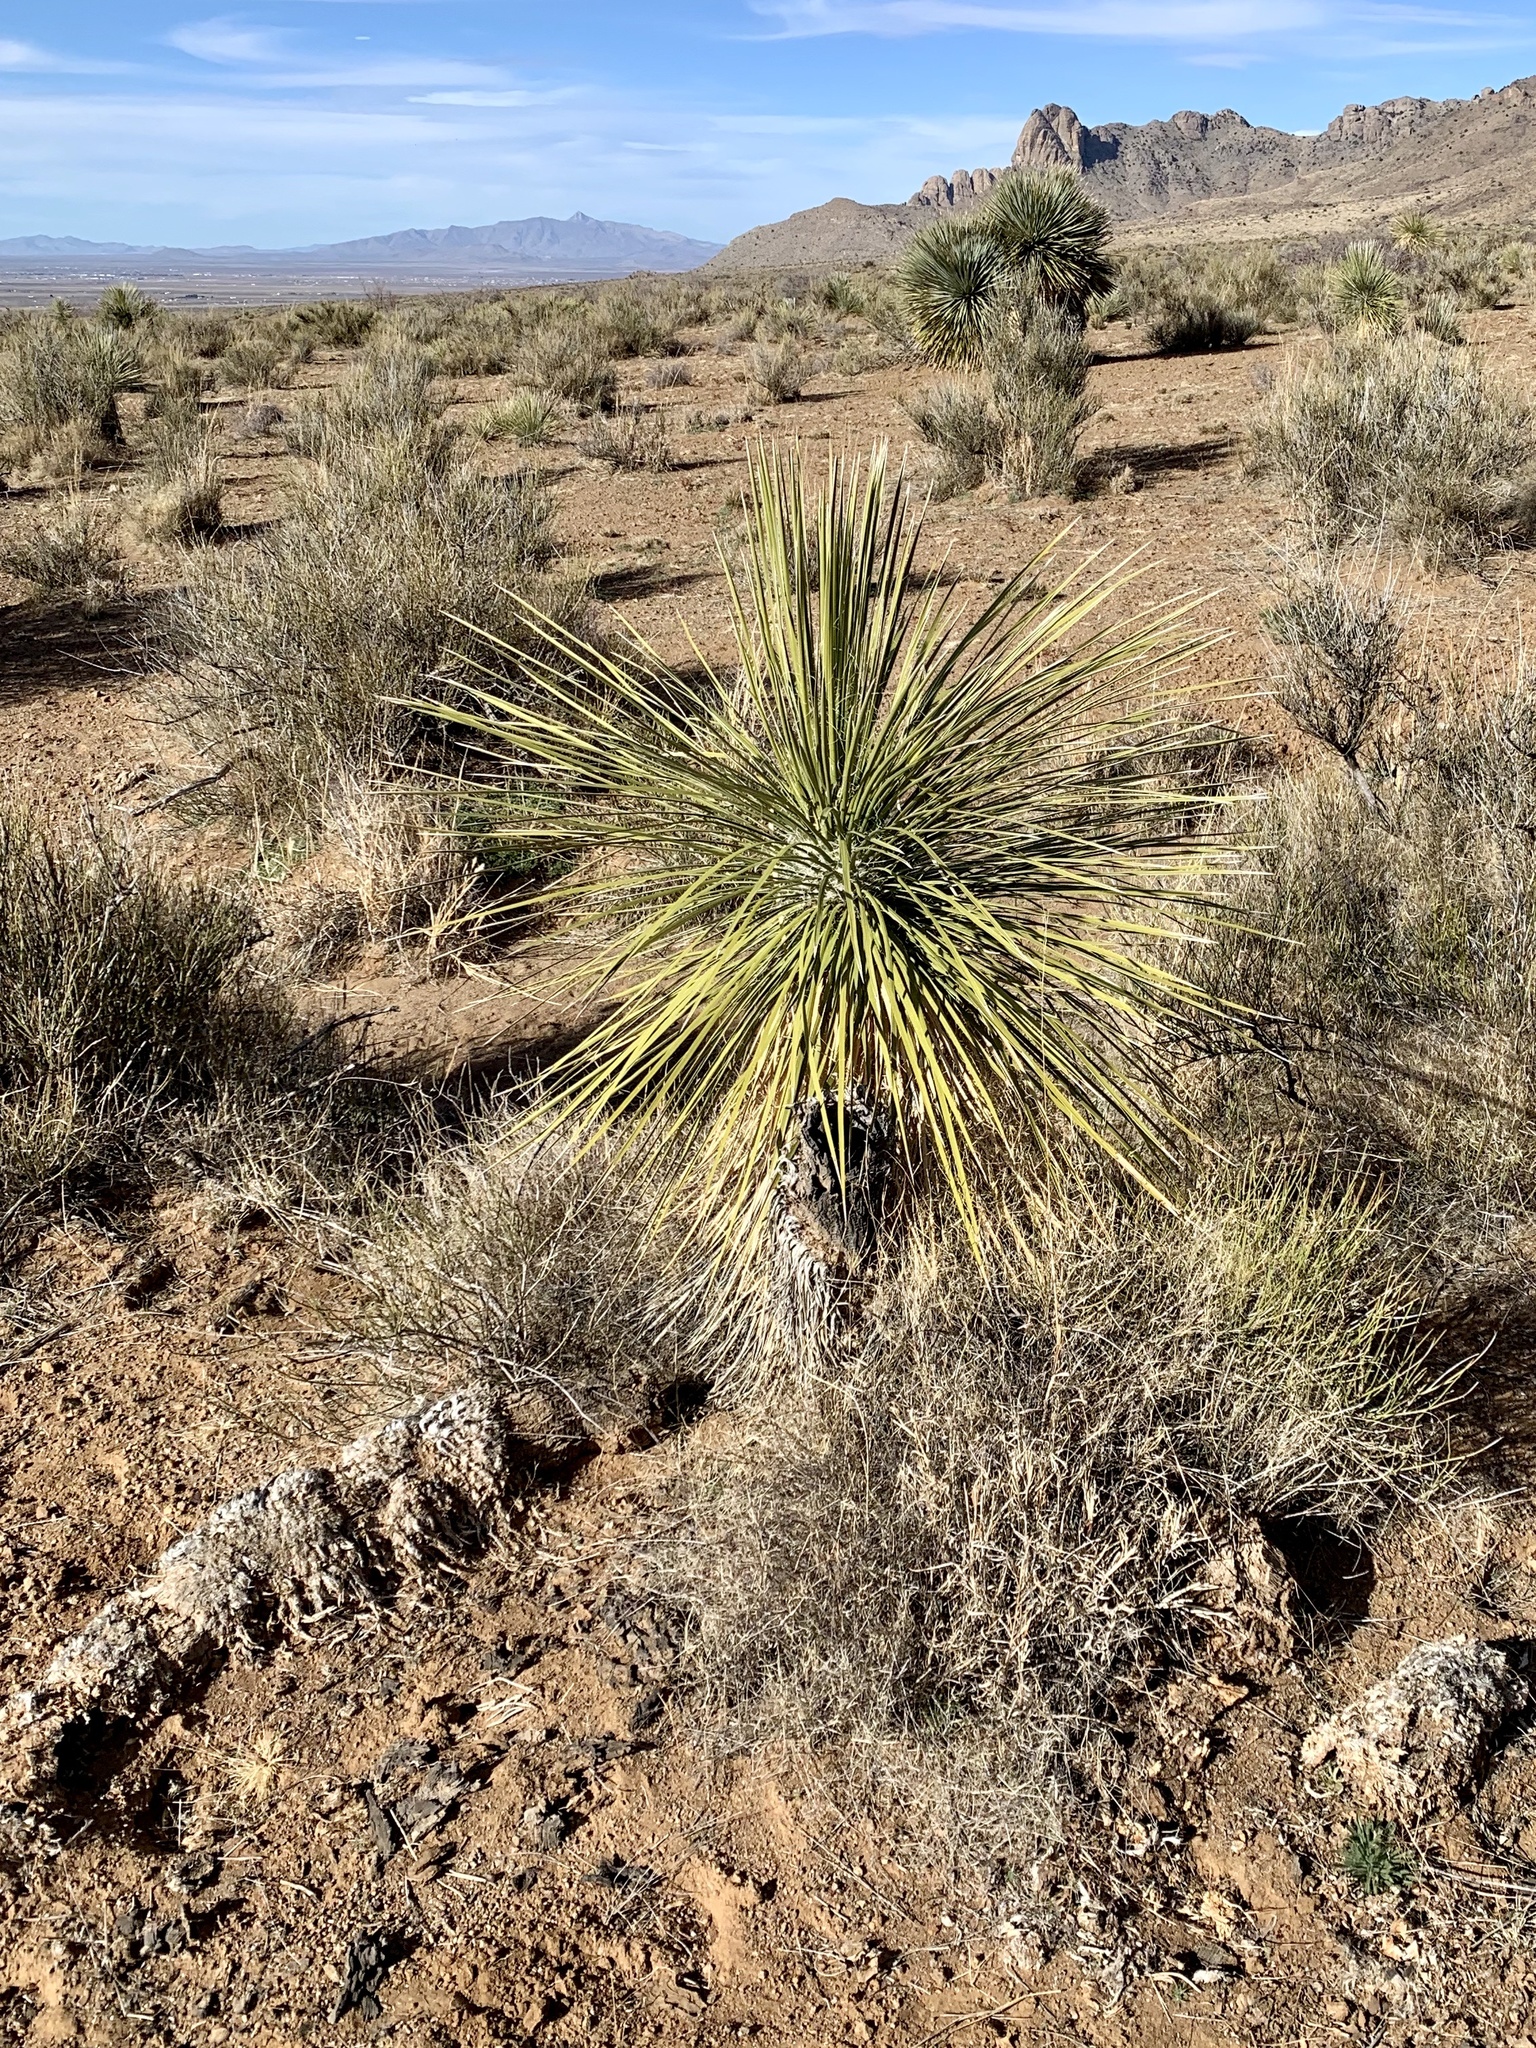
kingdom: Plantae
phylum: Tracheophyta
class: Liliopsida
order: Asparagales
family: Asparagaceae
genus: Yucca
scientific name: Yucca elata
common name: Palmella
